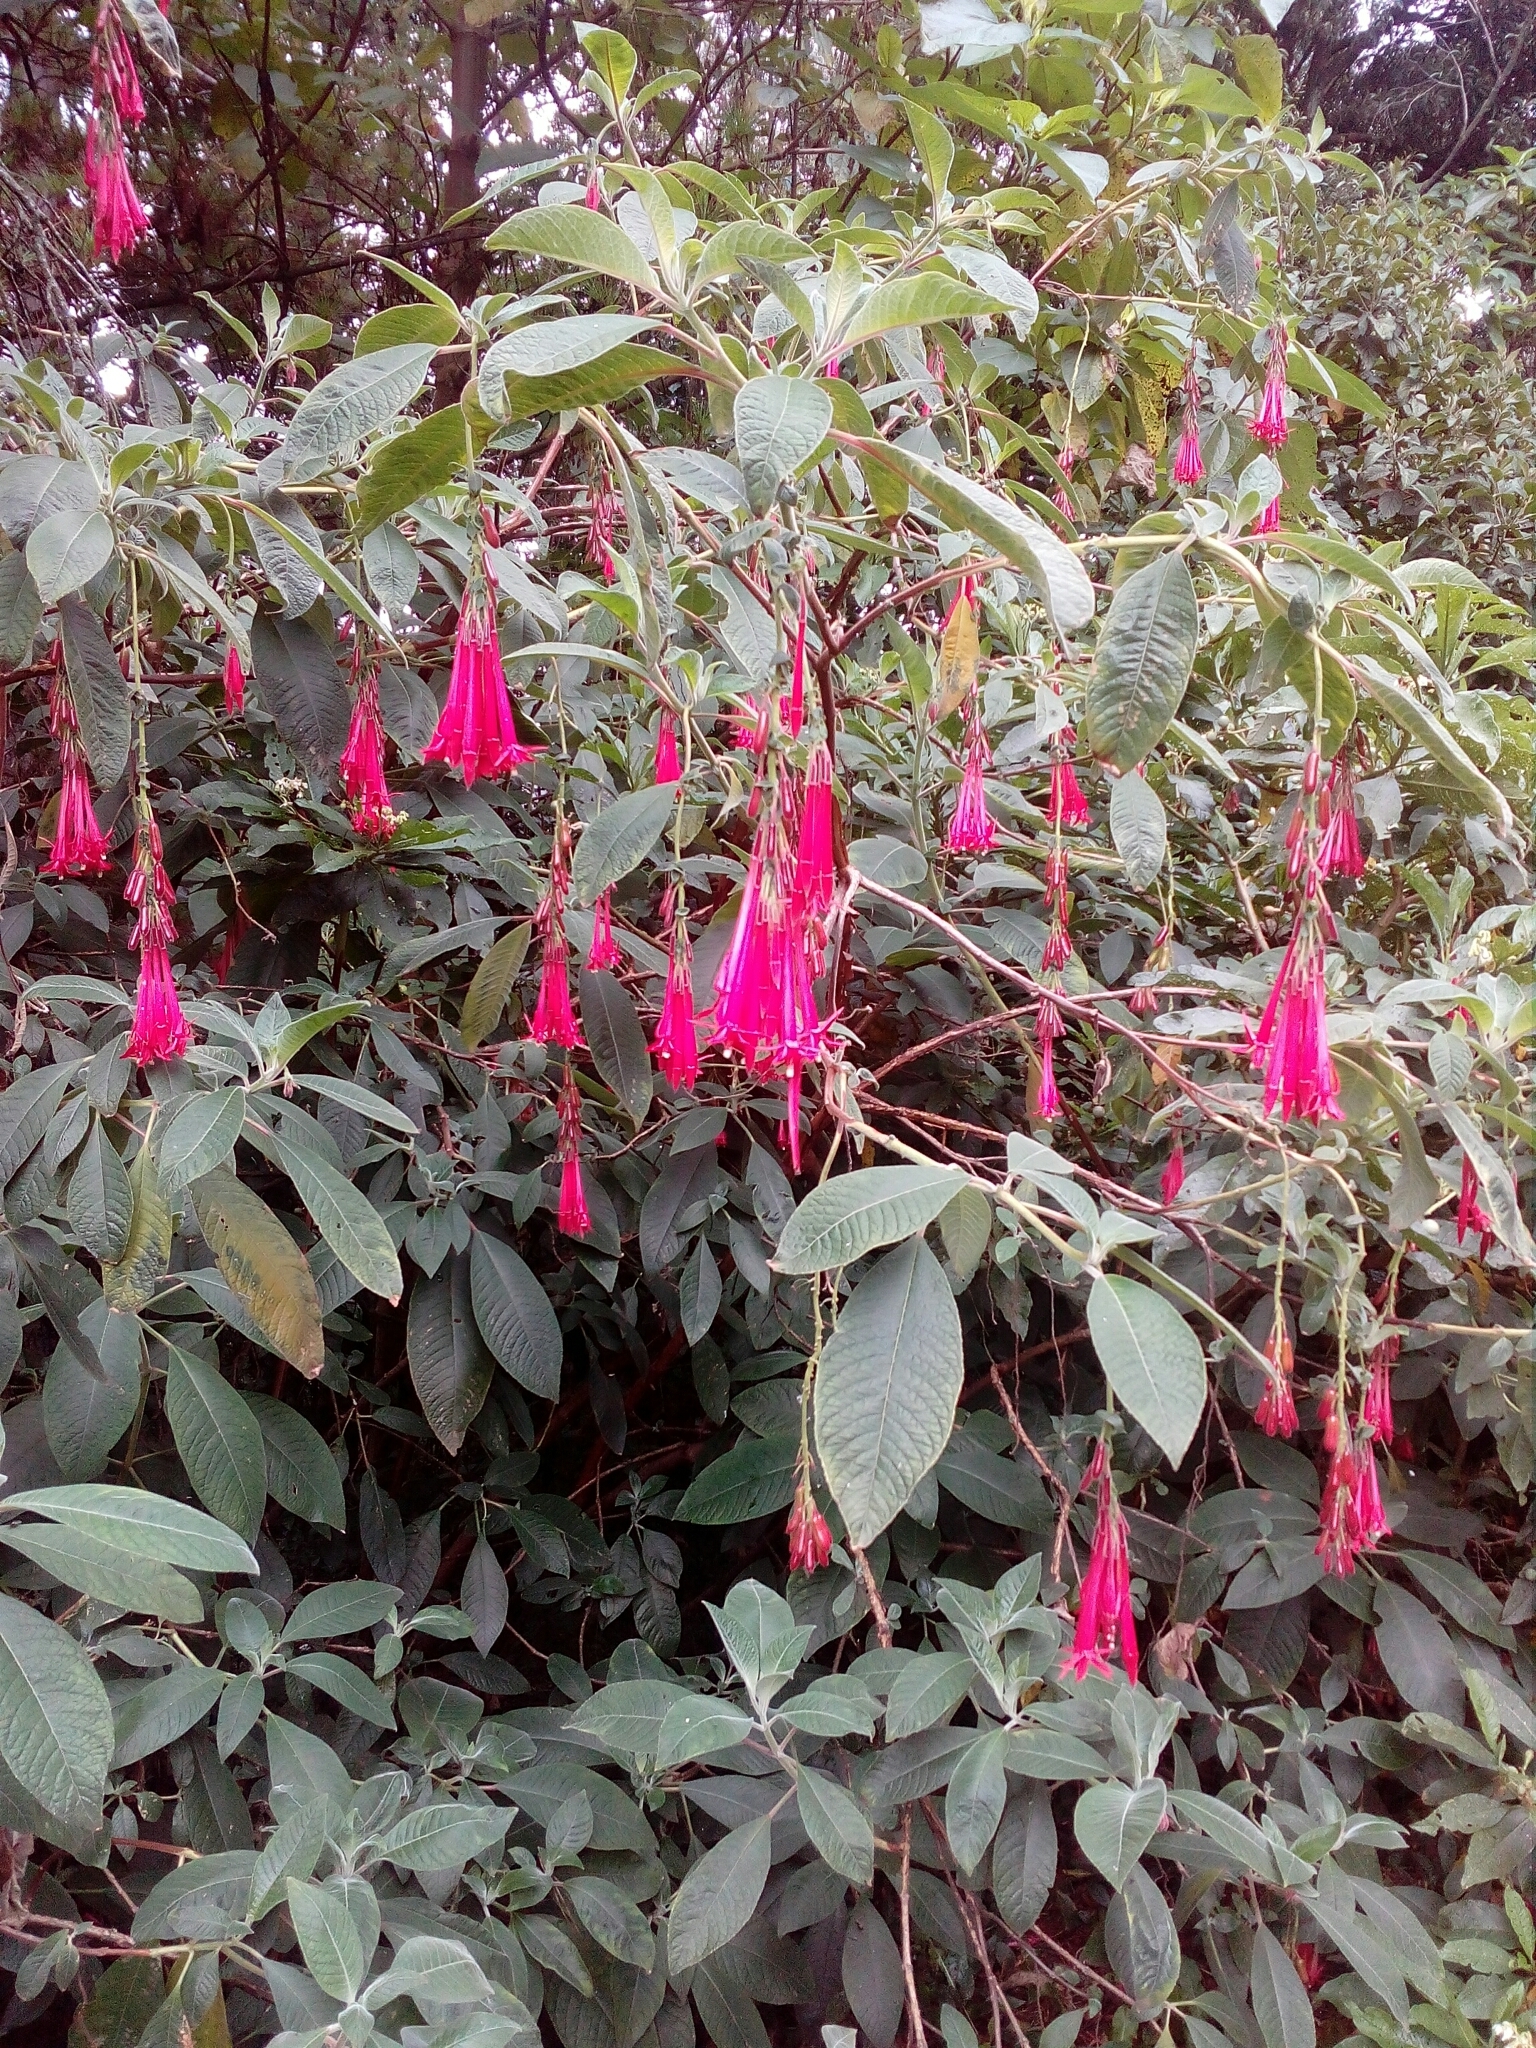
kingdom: Plantae
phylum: Tracheophyta
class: Magnoliopsida
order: Myrtales
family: Onagraceae
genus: Fuchsia
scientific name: Fuchsia boliviana
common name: Bolivian fuchsia
